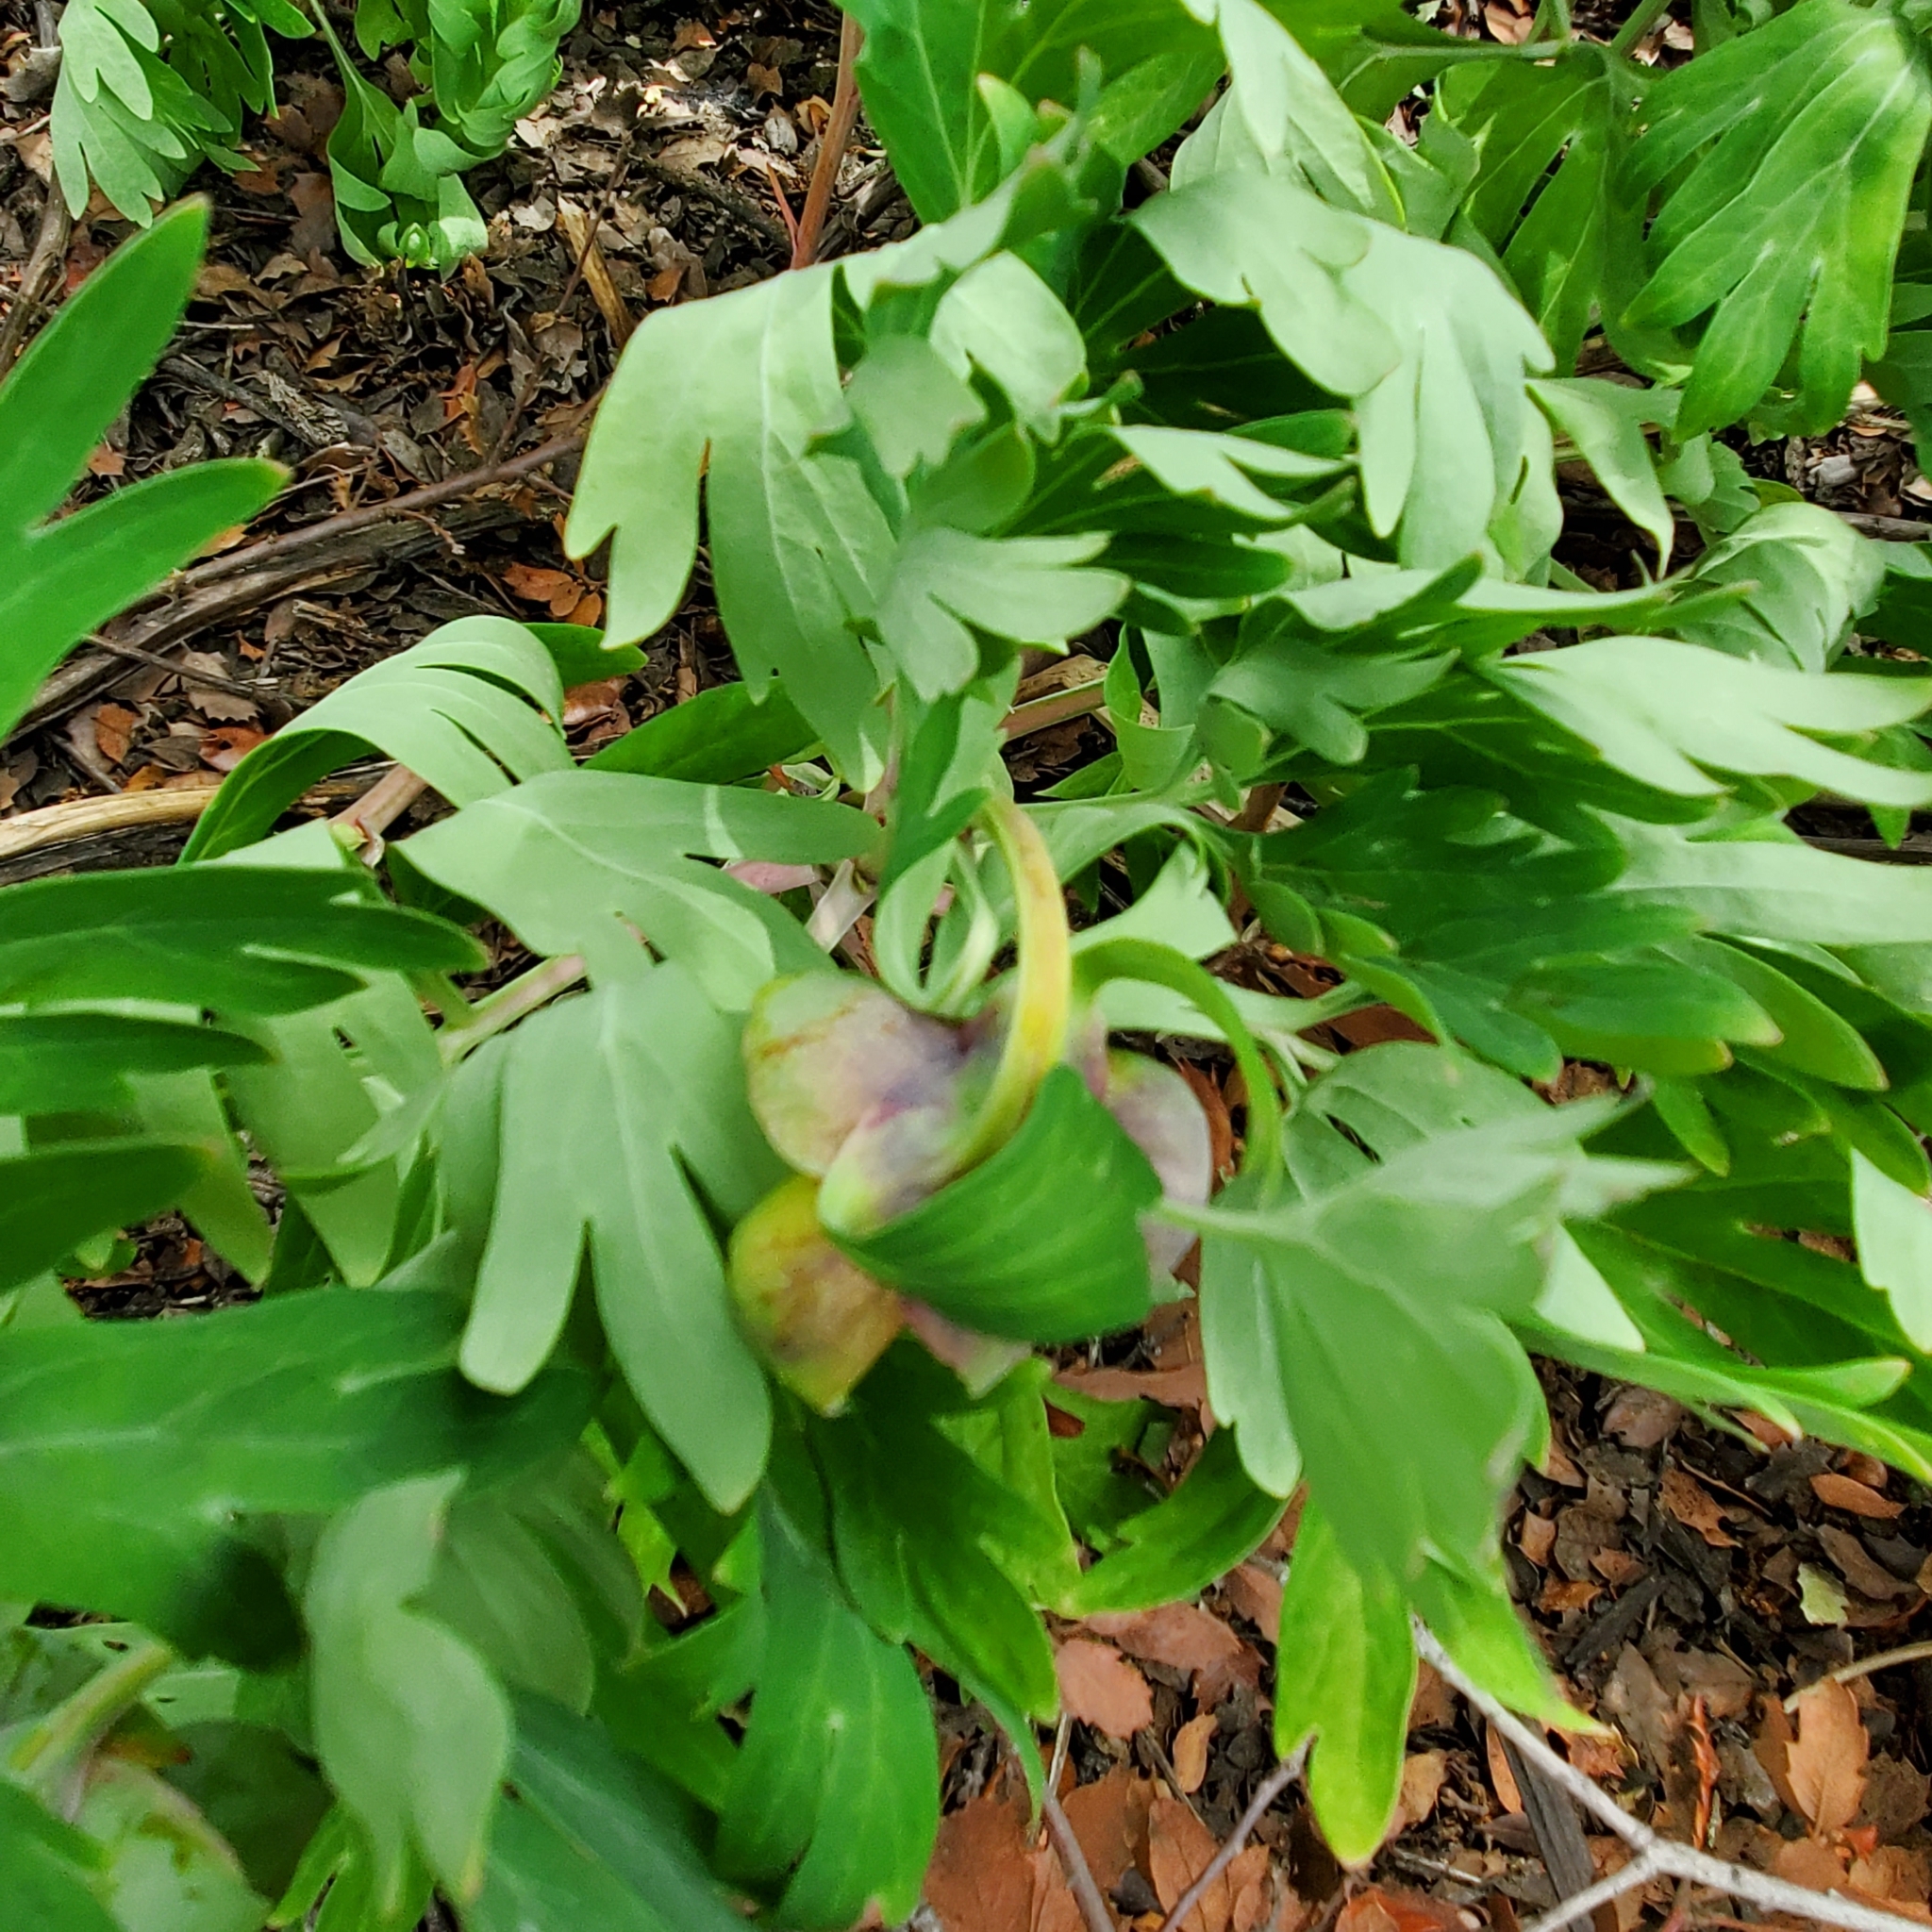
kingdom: Plantae
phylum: Tracheophyta
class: Magnoliopsida
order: Saxifragales
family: Paeoniaceae
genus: Paeonia
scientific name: Paeonia californica
